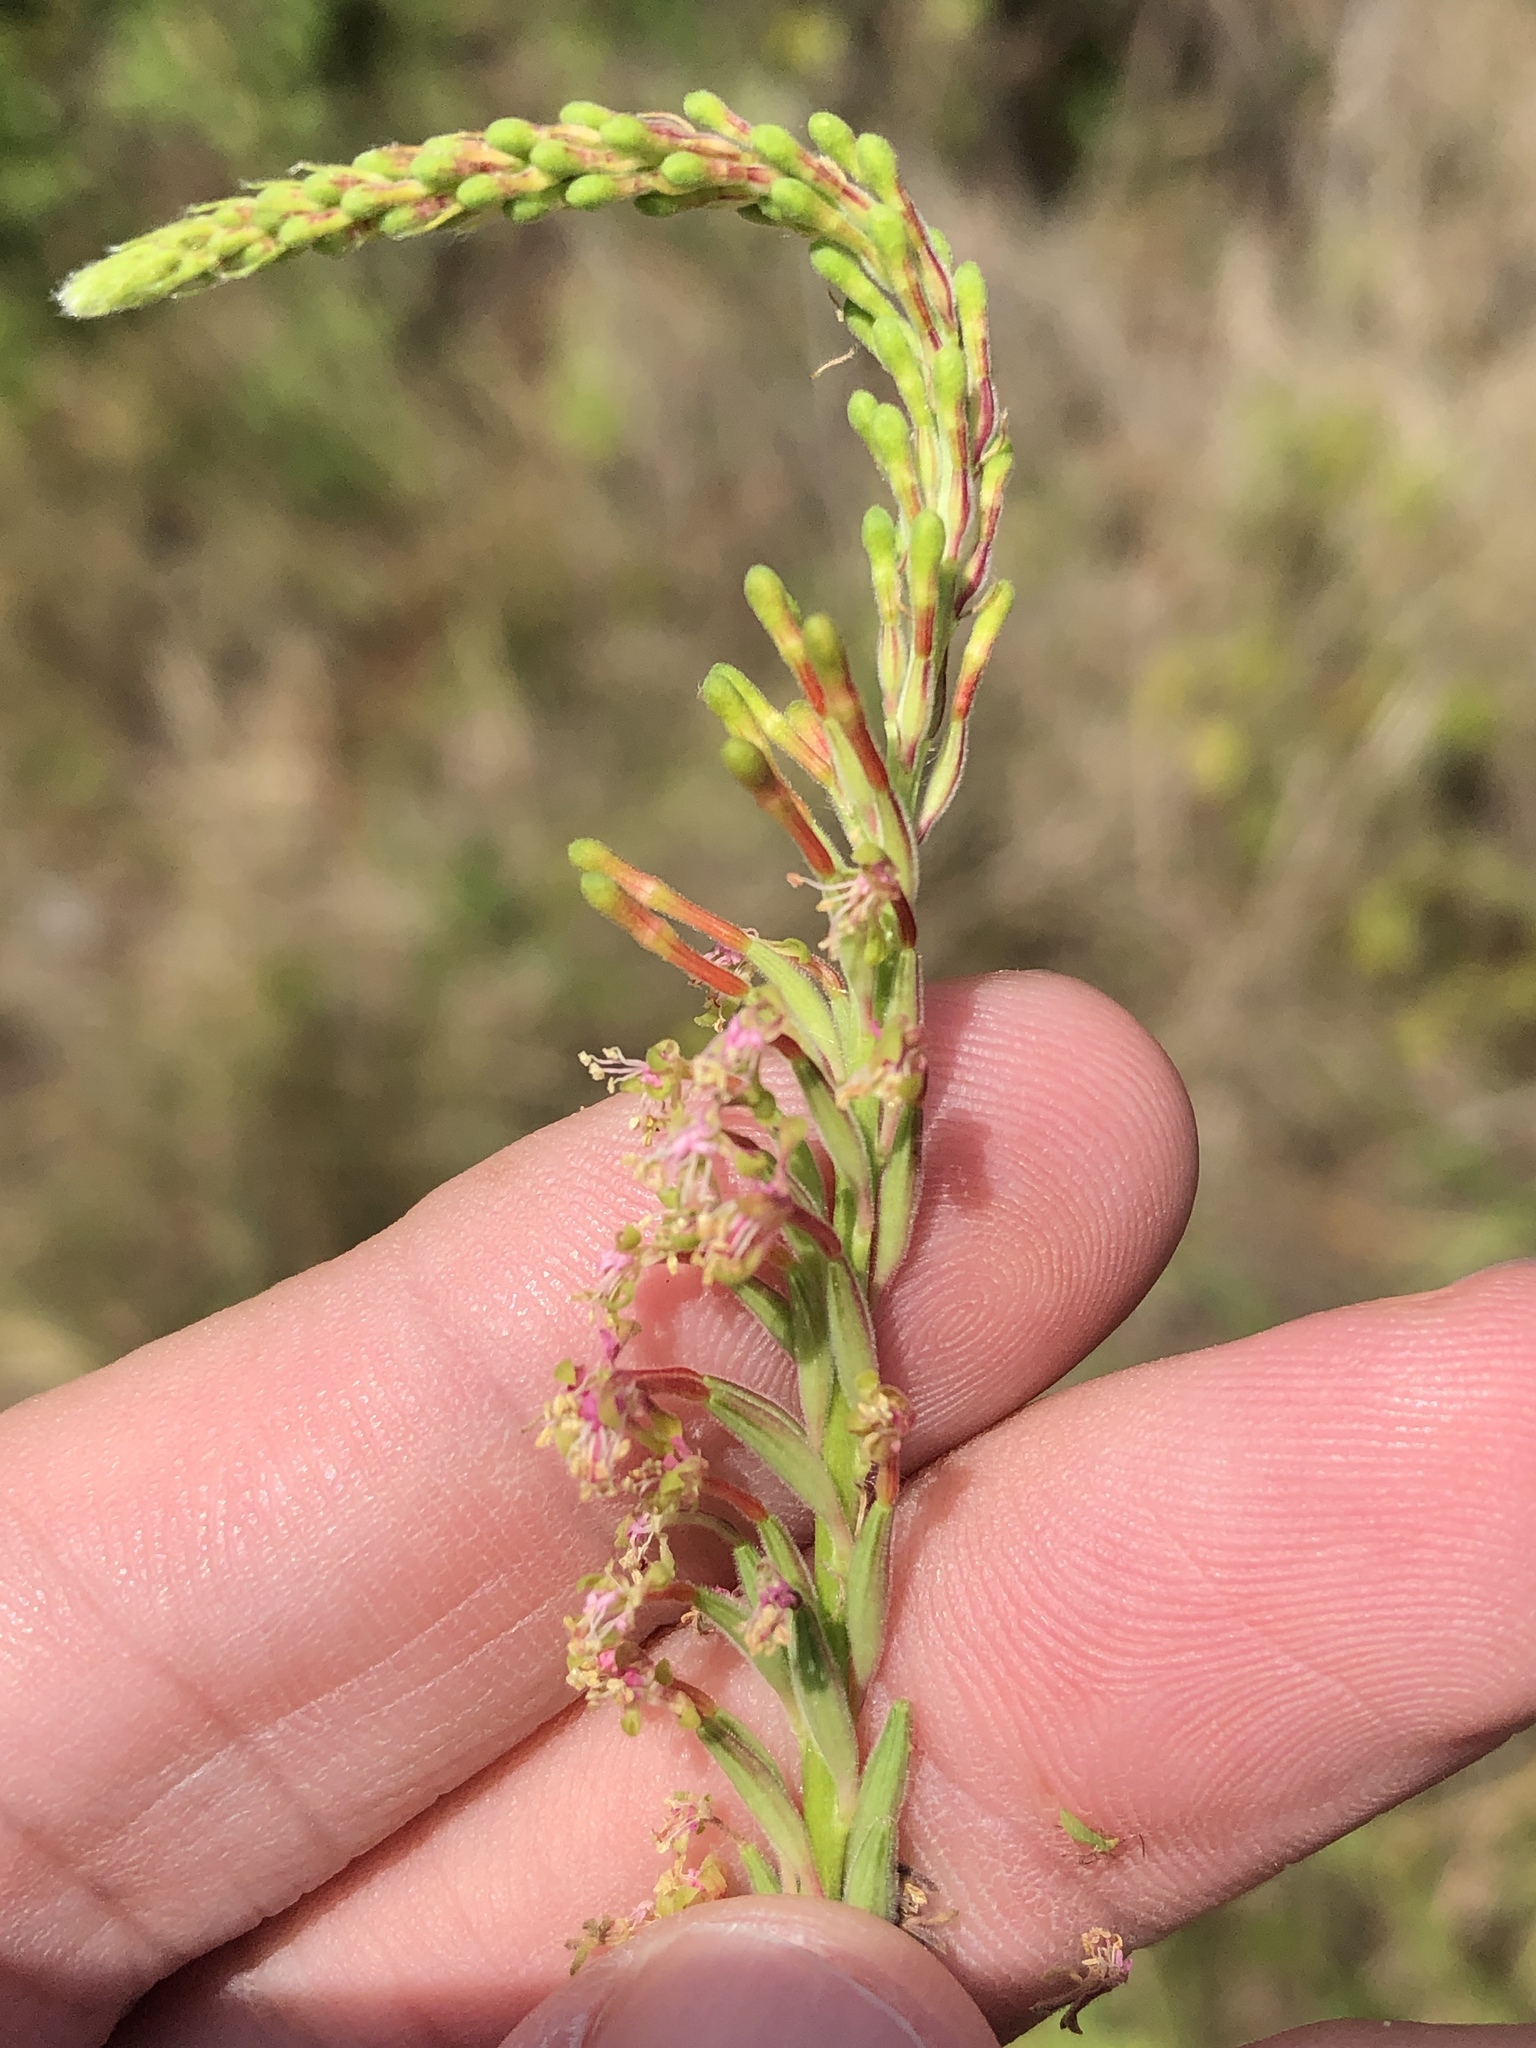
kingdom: Plantae
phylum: Tracheophyta
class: Magnoliopsida
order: Myrtales
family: Onagraceae
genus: Oenothera
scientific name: Oenothera curtiflora
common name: Velvetweed
